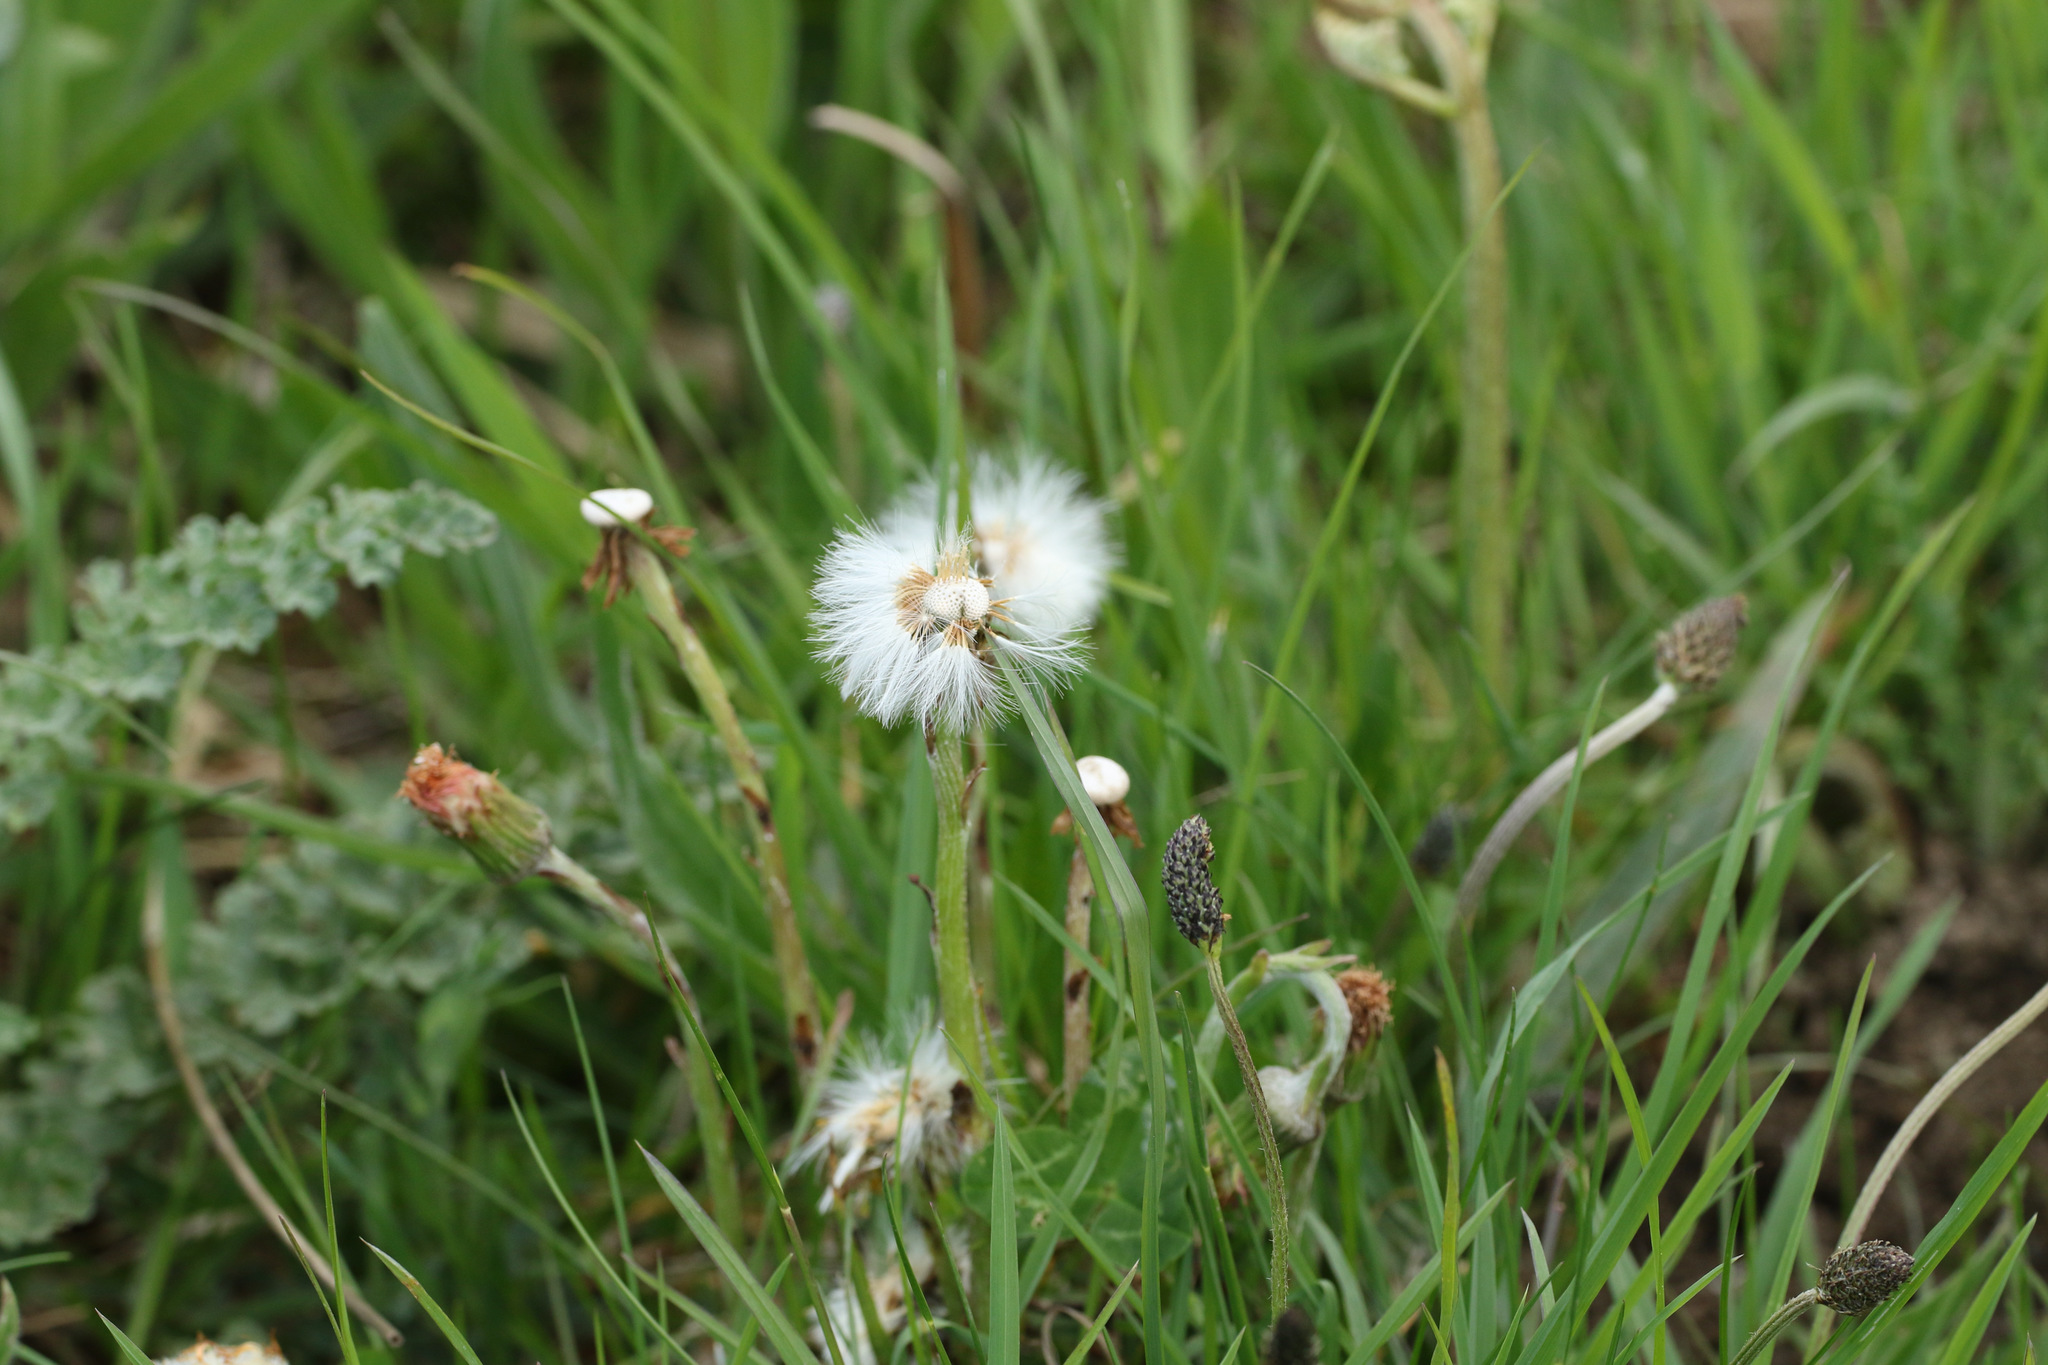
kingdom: Plantae
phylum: Tracheophyta
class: Magnoliopsida
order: Asterales
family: Asteraceae
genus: Tussilago
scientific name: Tussilago farfara
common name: Coltsfoot
